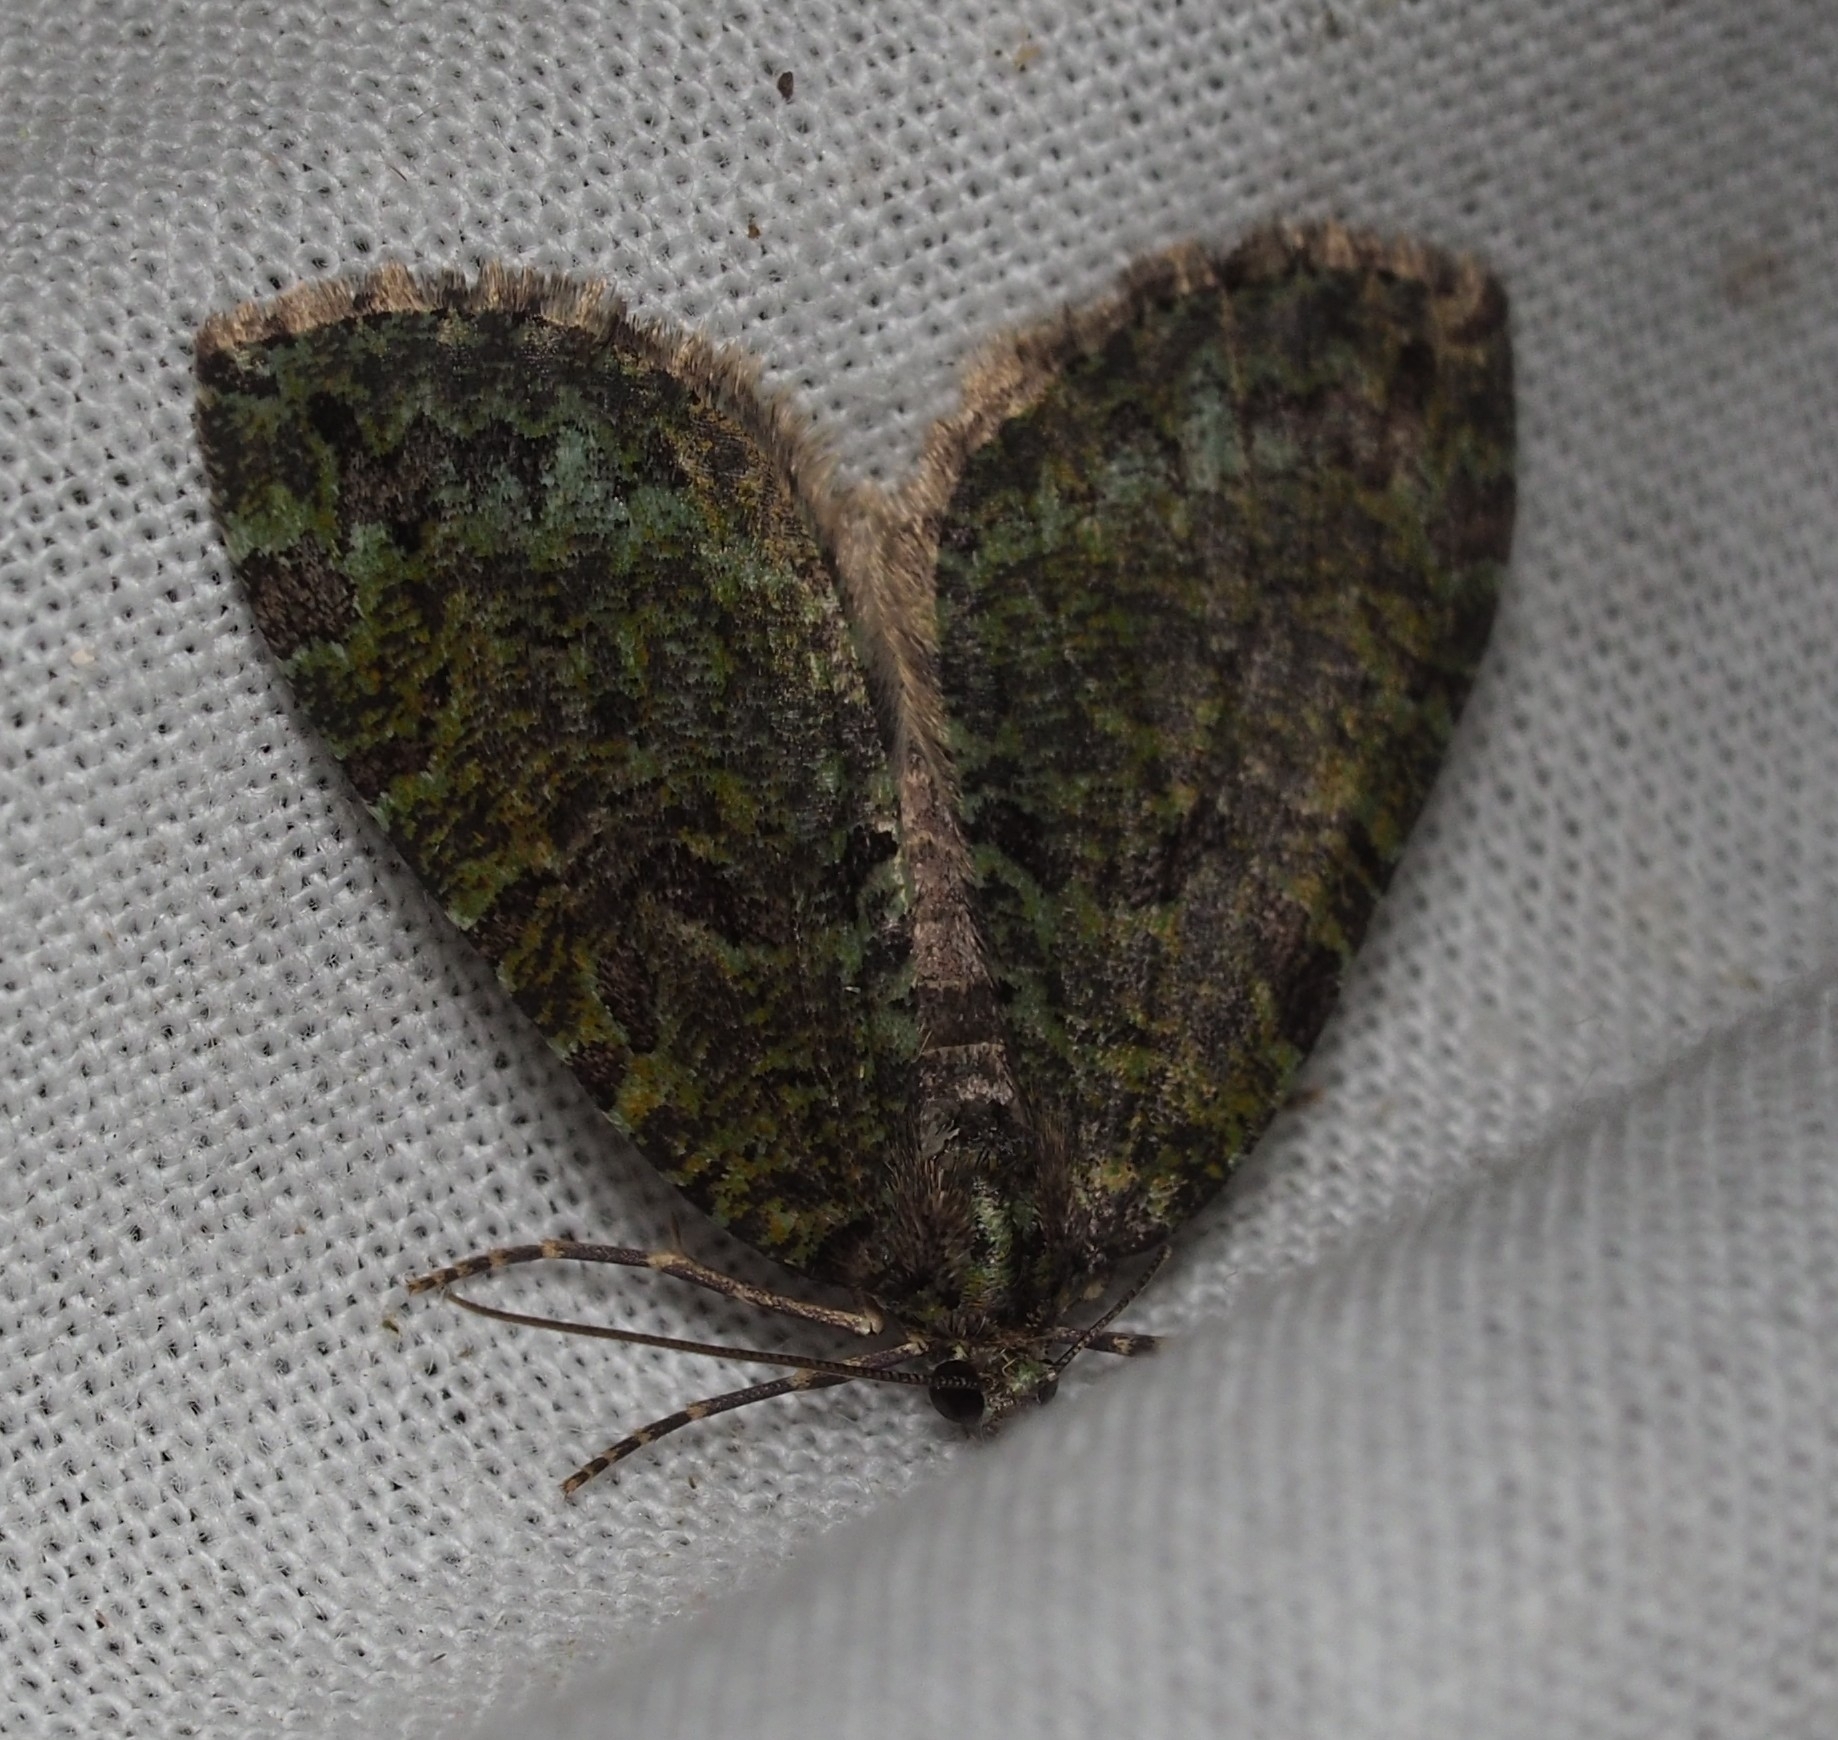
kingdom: Animalia
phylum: Arthropoda
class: Insecta
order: Lepidoptera
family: Geometridae
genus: Hydriomena
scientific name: Hydriomena furcata
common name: July highflyer
